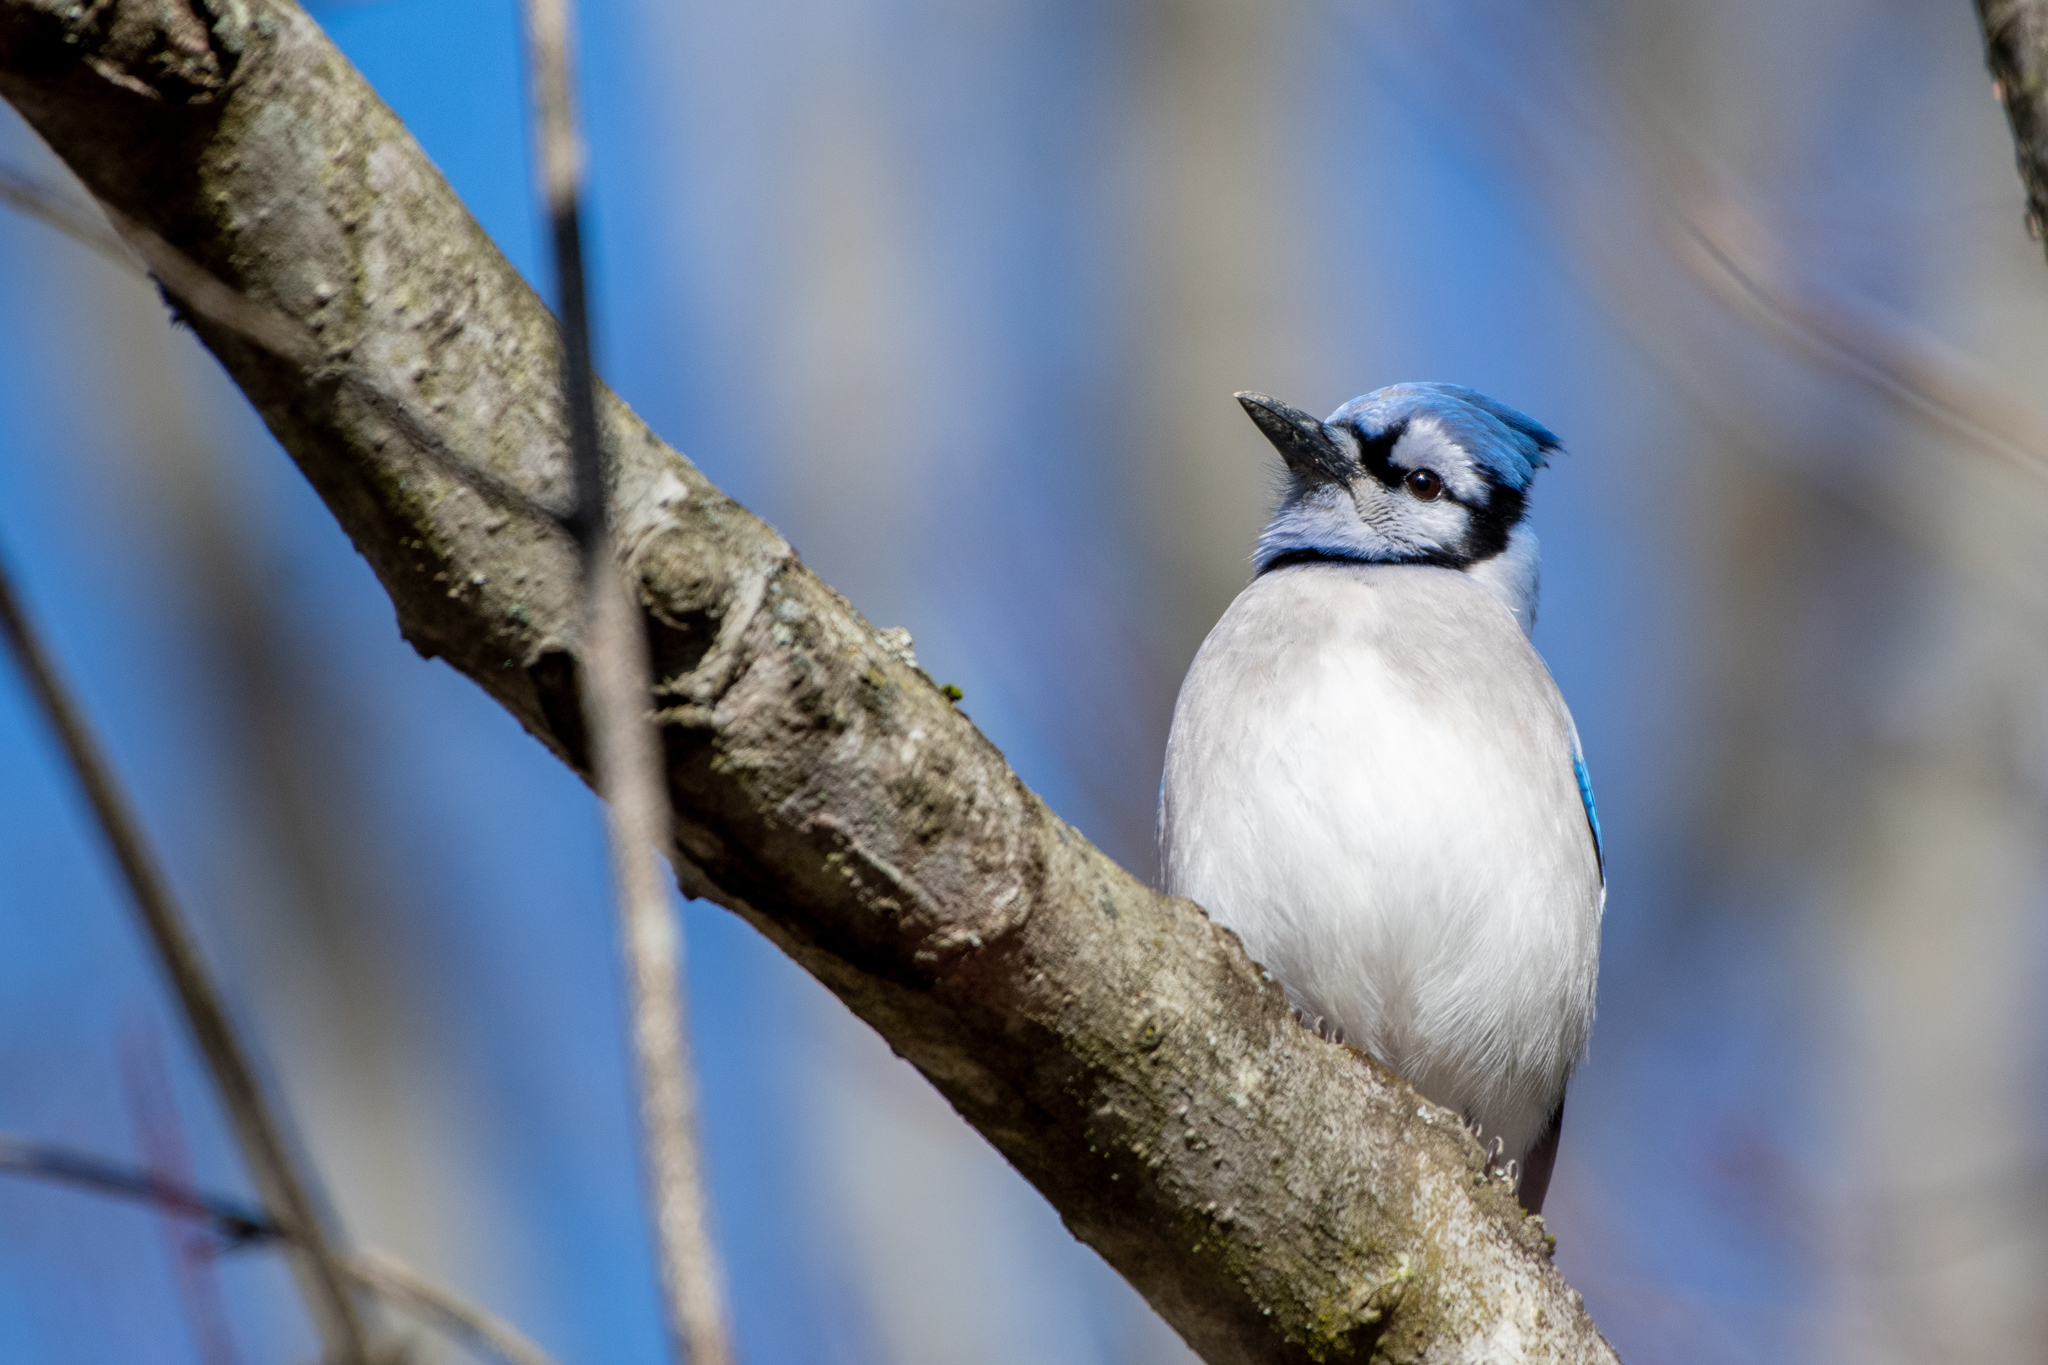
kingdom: Animalia
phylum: Chordata
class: Aves
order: Passeriformes
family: Corvidae
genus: Cyanocitta
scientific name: Cyanocitta cristata
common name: Blue jay
